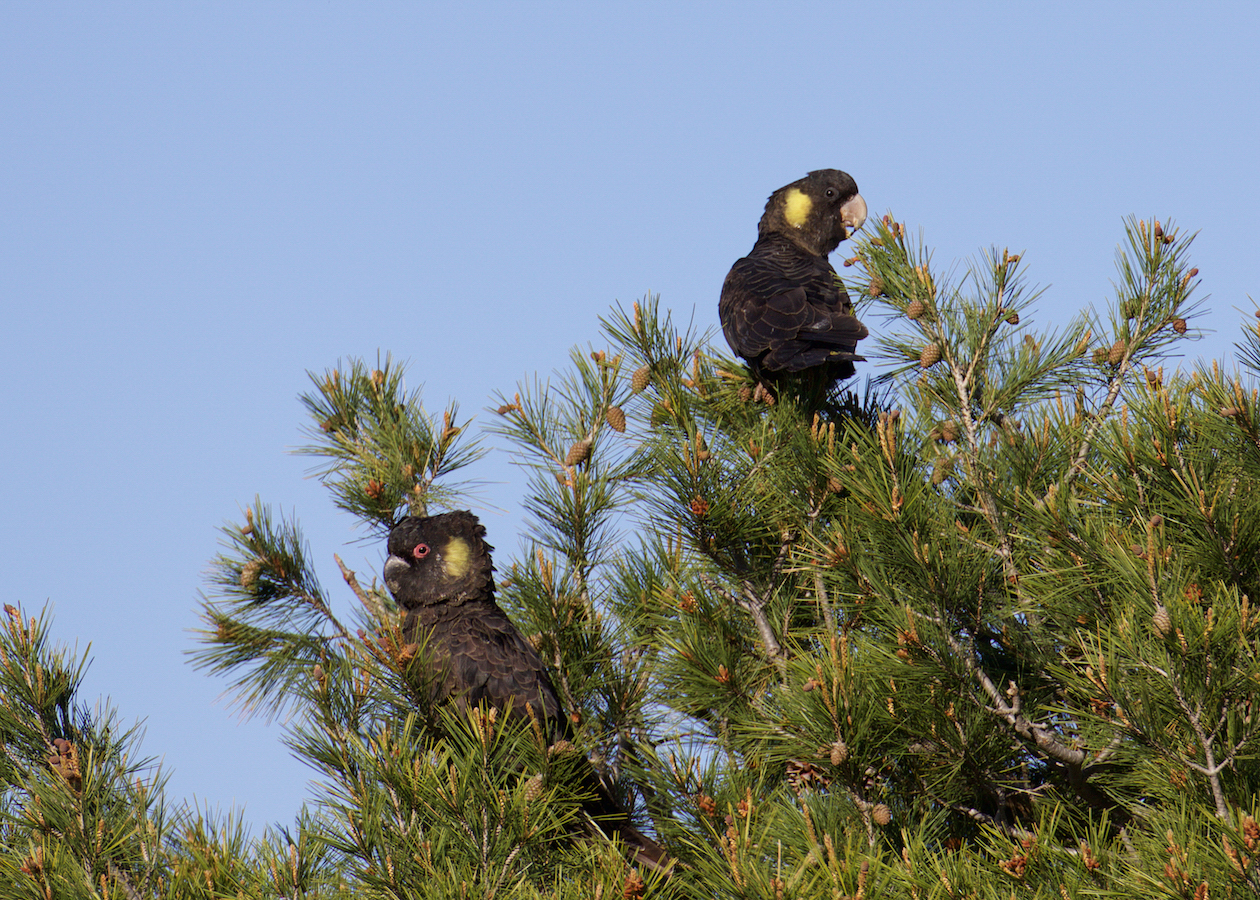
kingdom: Animalia
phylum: Chordata
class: Aves
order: Psittaciformes
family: Cacatuidae
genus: Zanda
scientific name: Zanda funerea
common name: Yellow-tailed black-cockatoo
